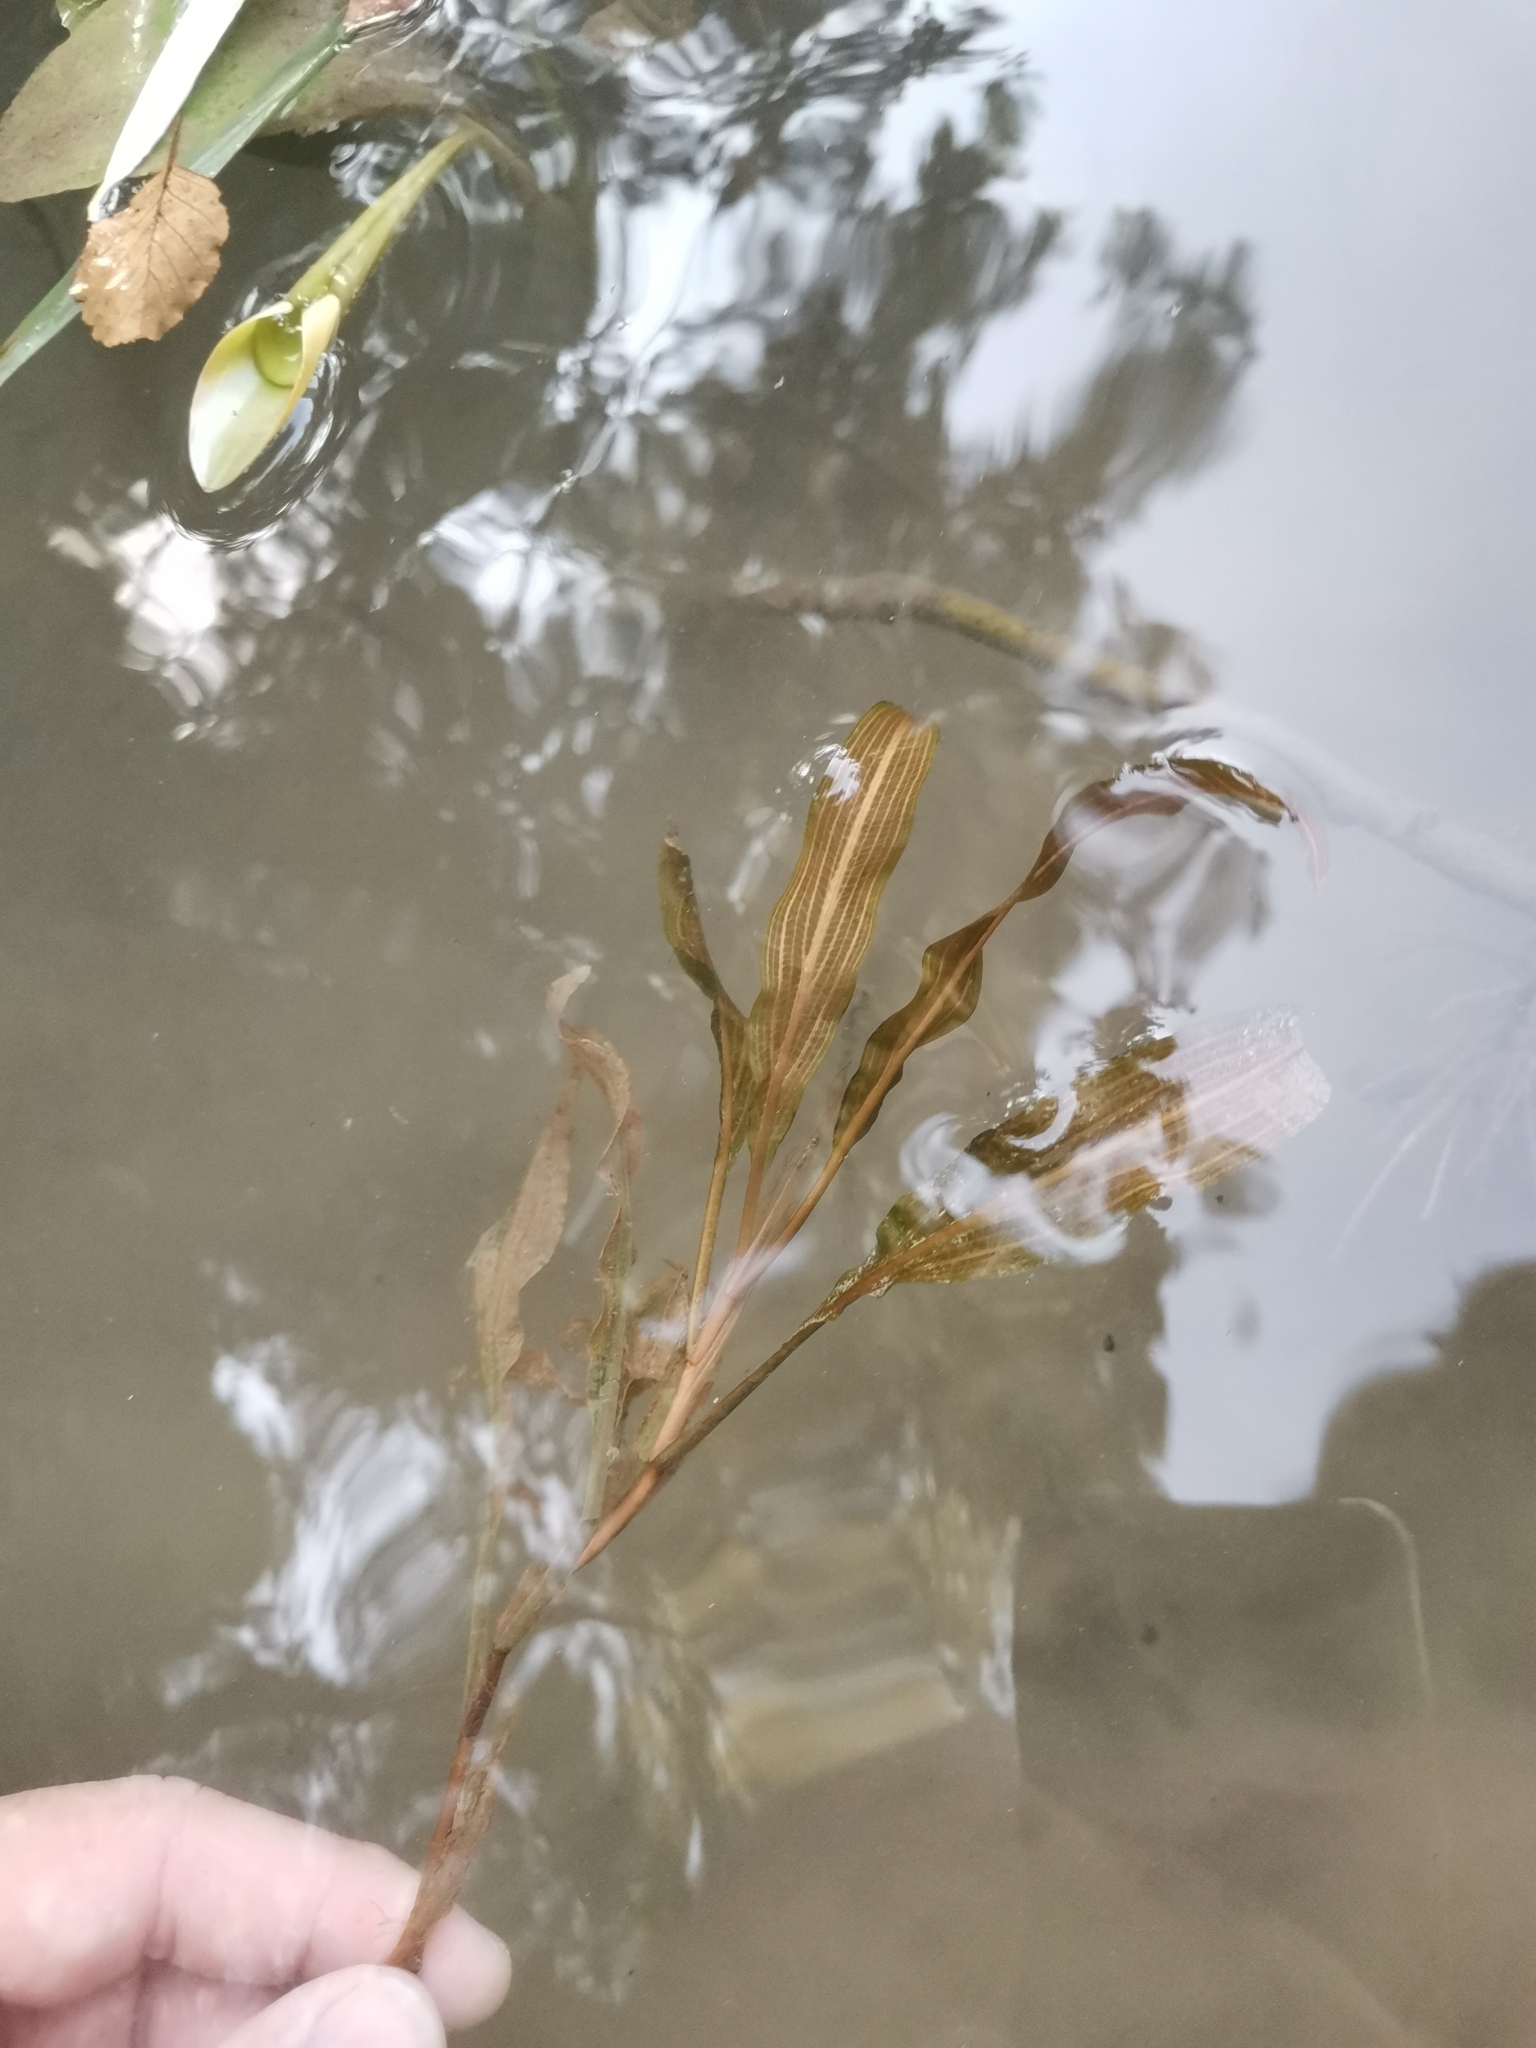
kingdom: Plantae
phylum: Tracheophyta
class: Liliopsida
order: Alismatales
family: Potamogetonaceae
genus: Potamogeton
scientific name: Potamogeton nodosus
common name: Loddon pondweed
